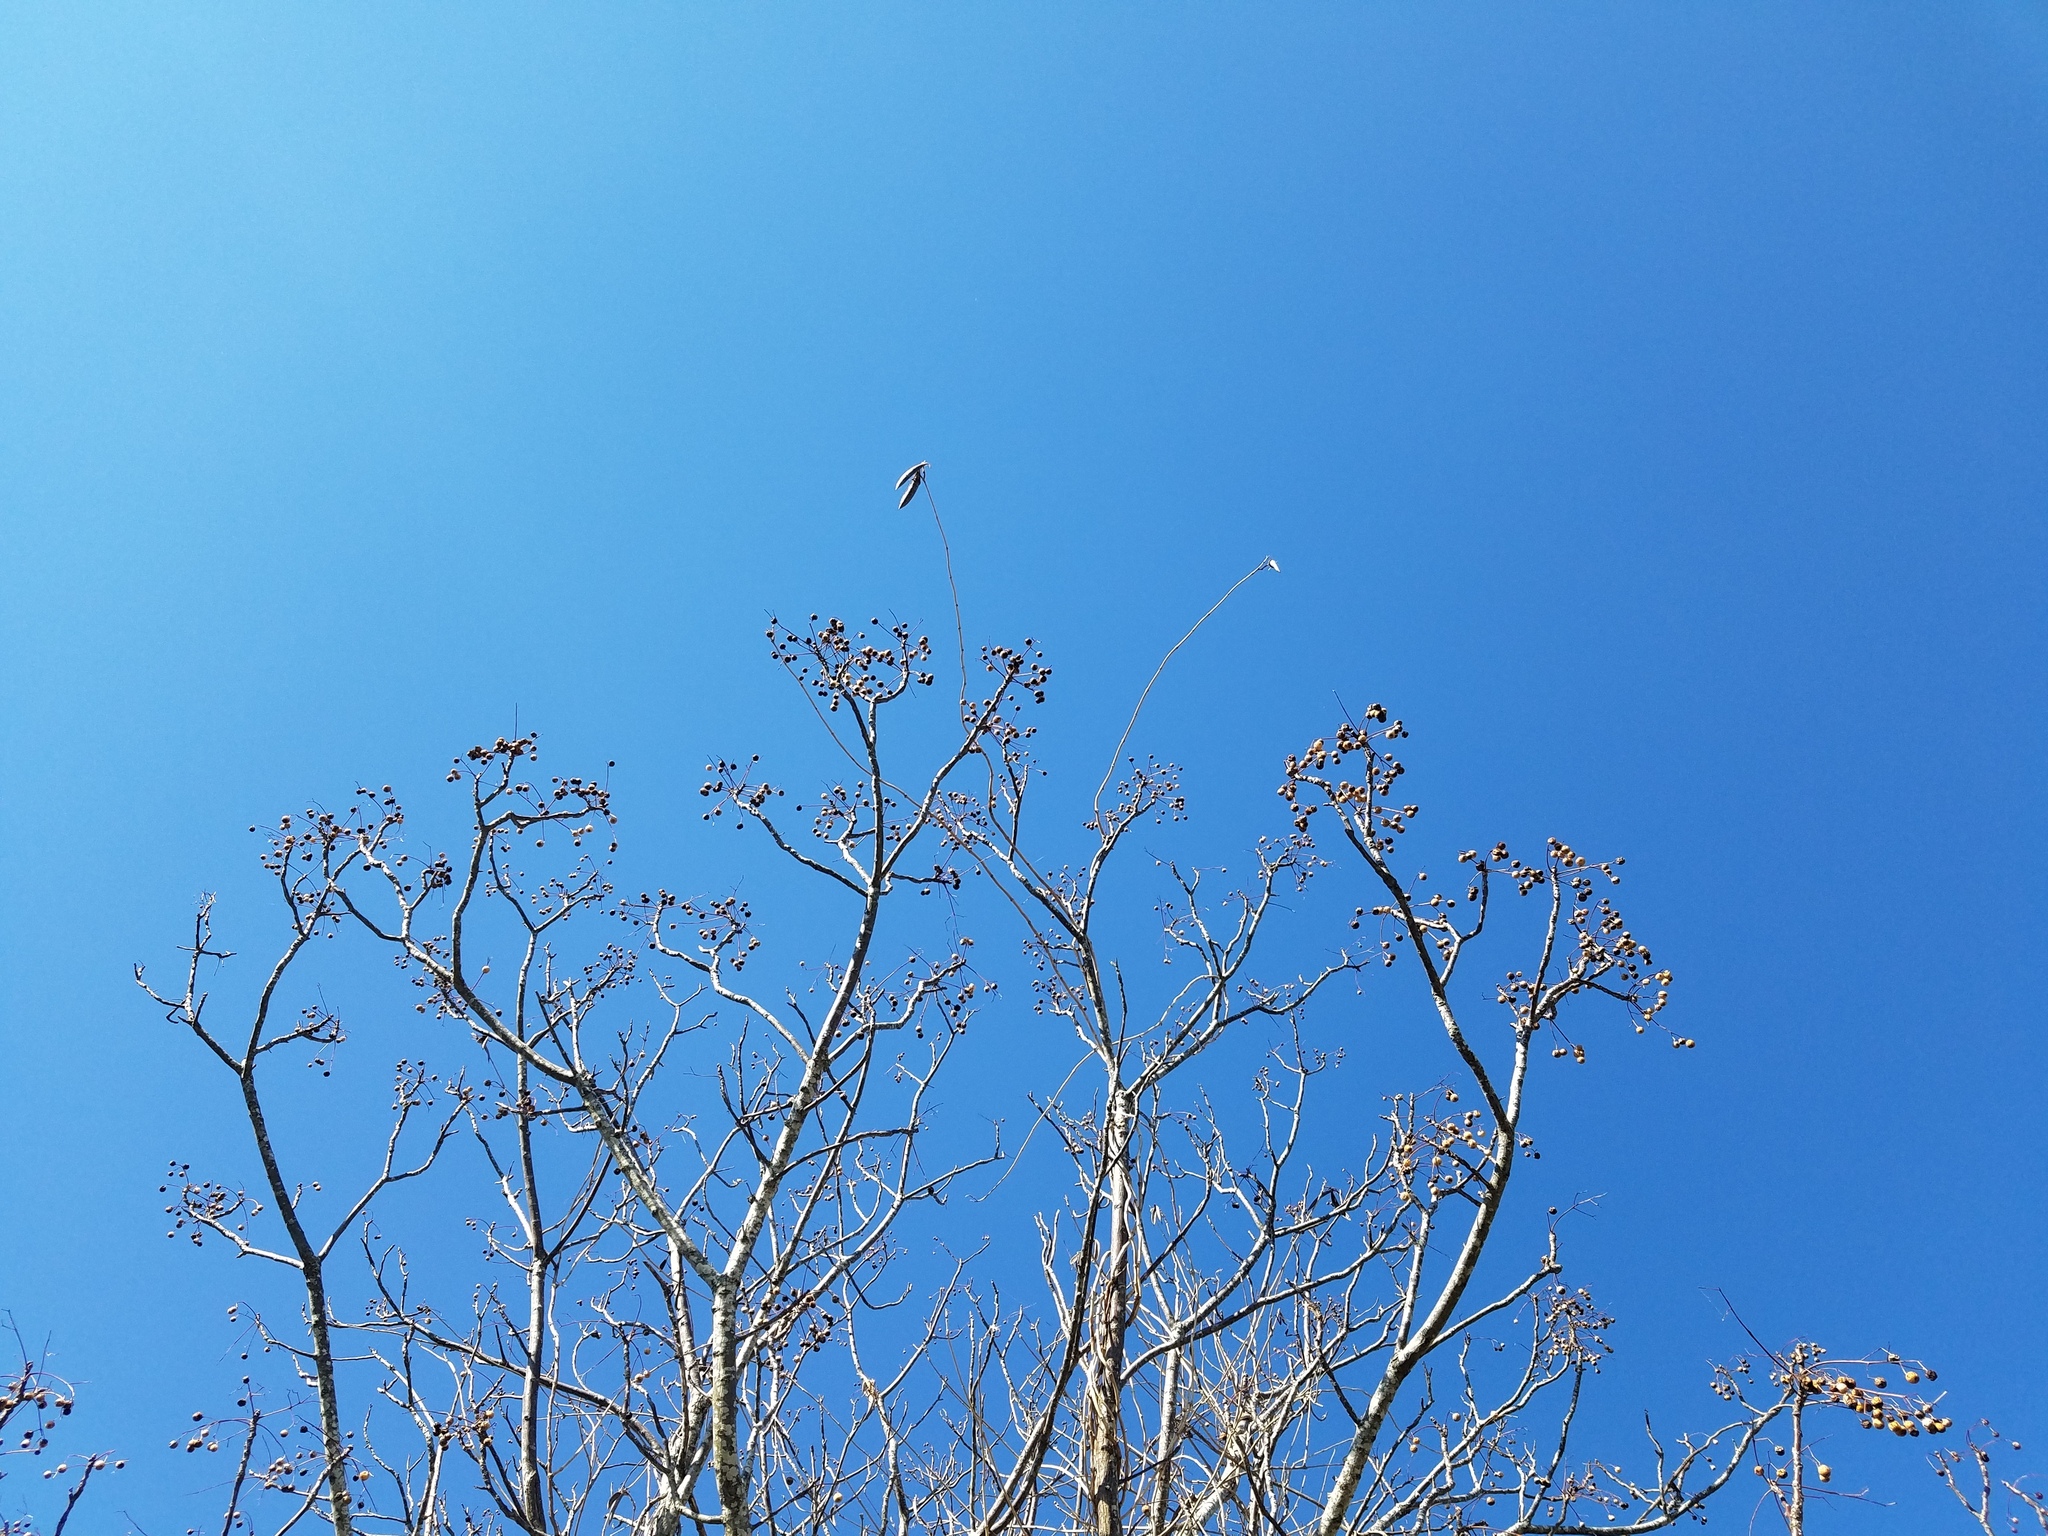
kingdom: Plantae
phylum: Tracheophyta
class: Magnoliopsida
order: Sapindales
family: Meliaceae
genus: Melia
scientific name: Melia azedarach
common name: Chinaberrytree
